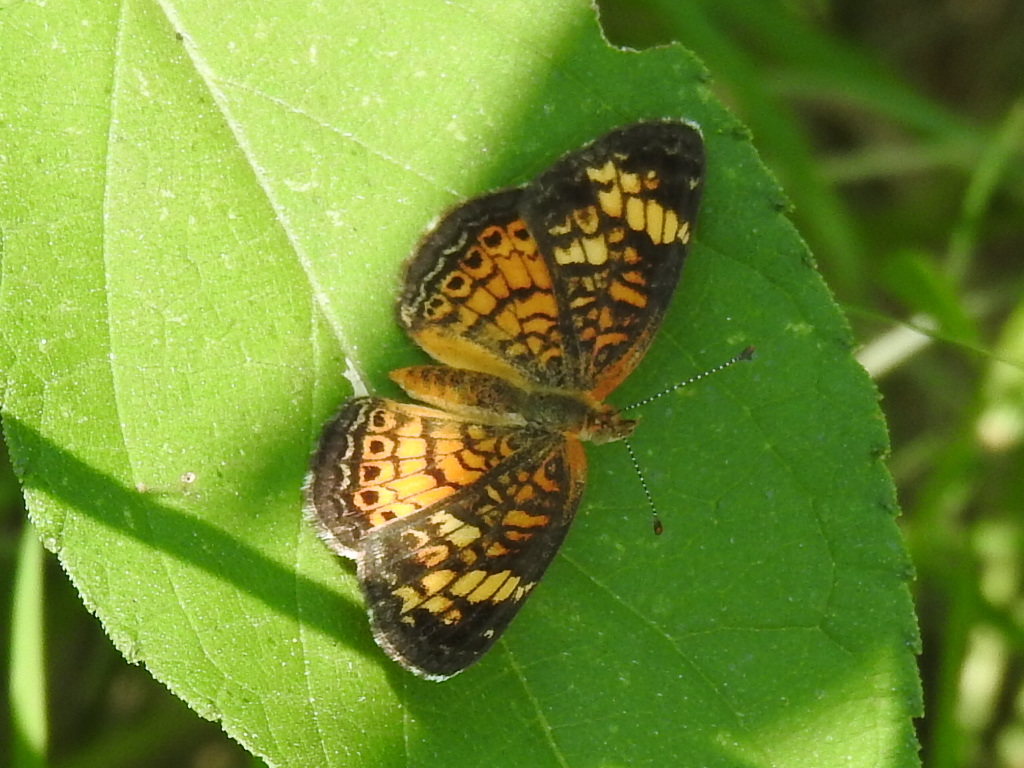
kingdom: Animalia
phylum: Arthropoda
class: Insecta
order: Lepidoptera
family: Nymphalidae
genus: Phyciodes
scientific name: Phyciodes tharos
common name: Pearl crescent
